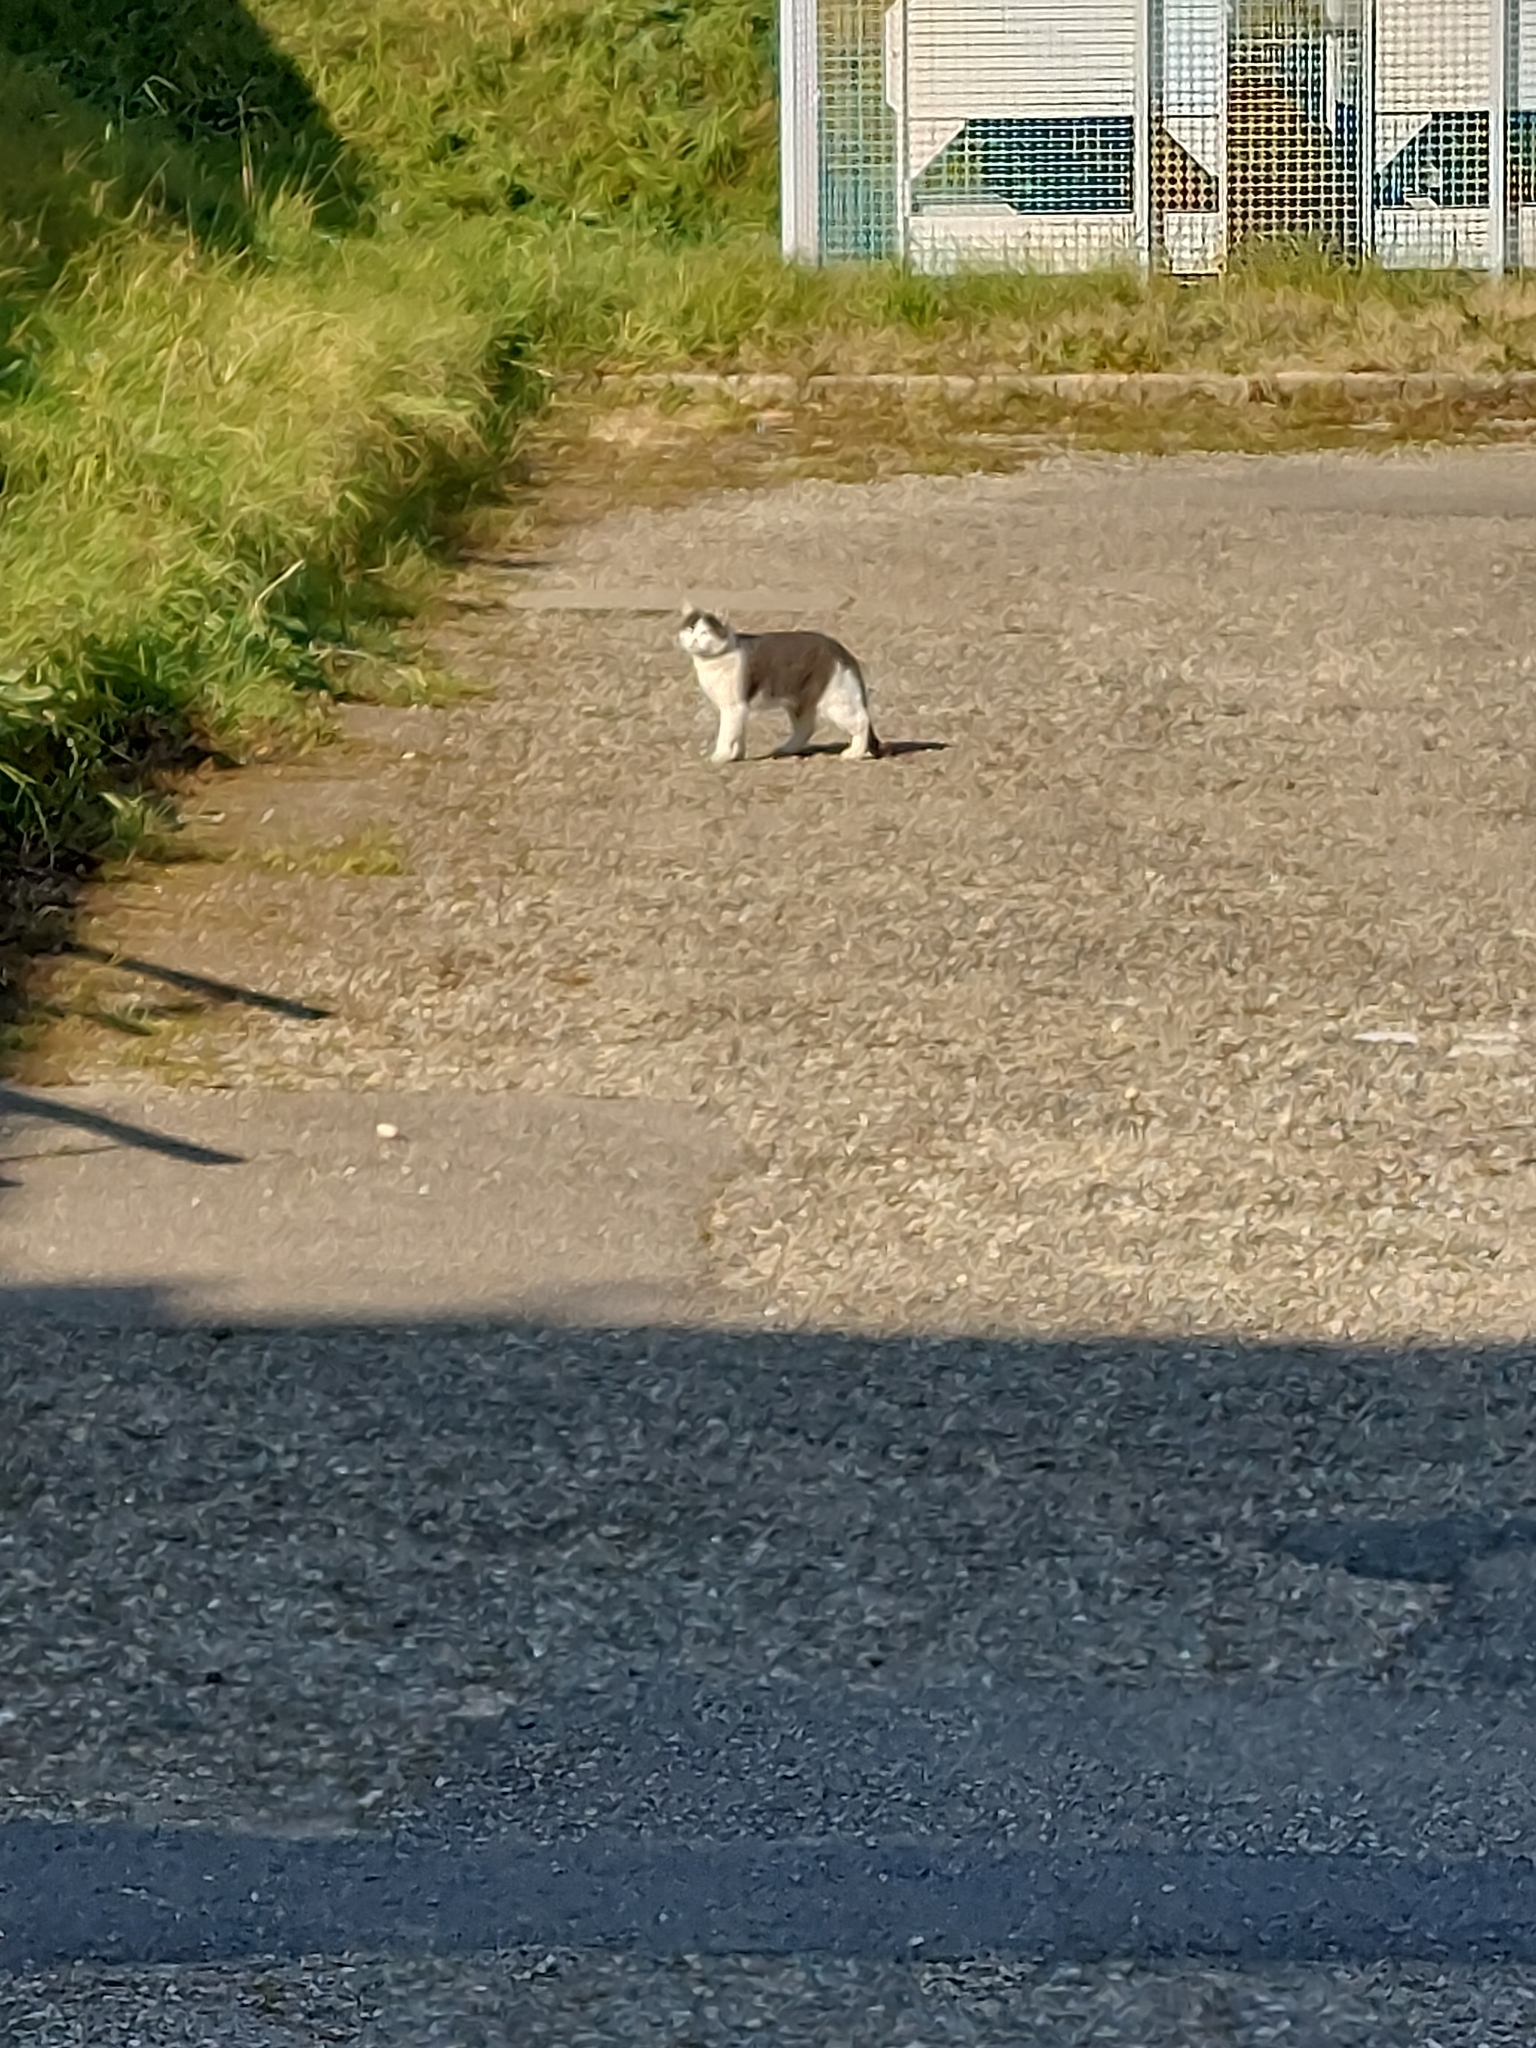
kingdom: Animalia
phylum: Chordata
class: Mammalia
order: Carnivora
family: Felidae
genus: Felis
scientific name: Felis catus
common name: Domestic cat
